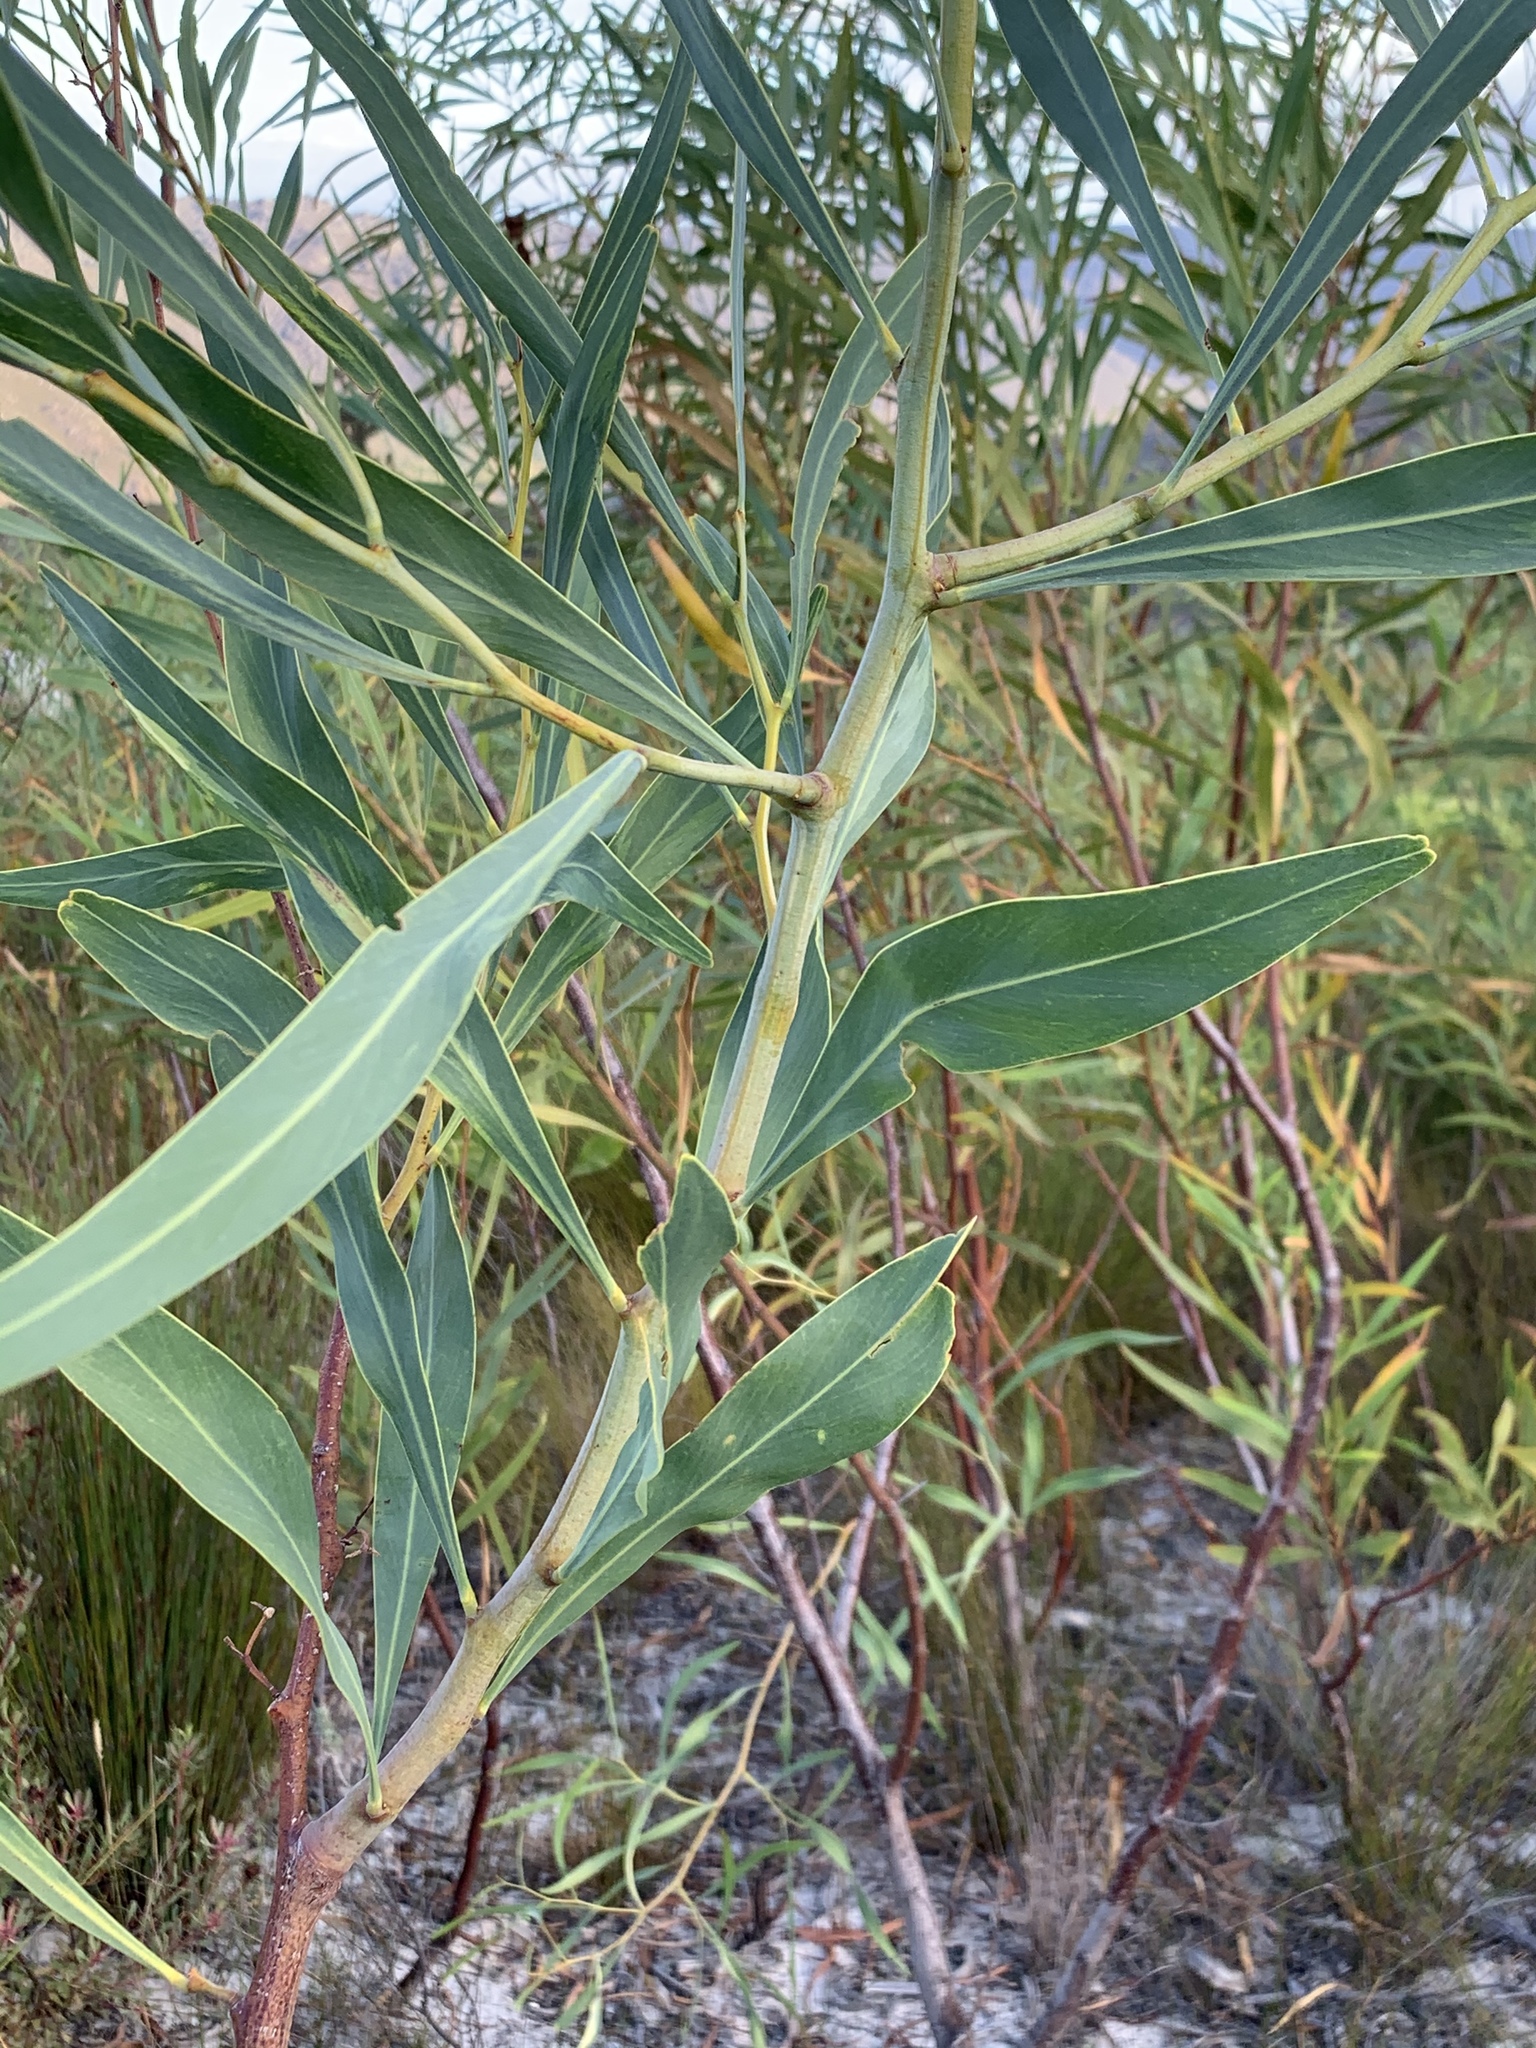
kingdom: Plantae
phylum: Tracheophyta
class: Magnoliopsida
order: Fabales
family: Fabaceae
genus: Acacia
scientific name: Acacia saligna
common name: Orange wattle
